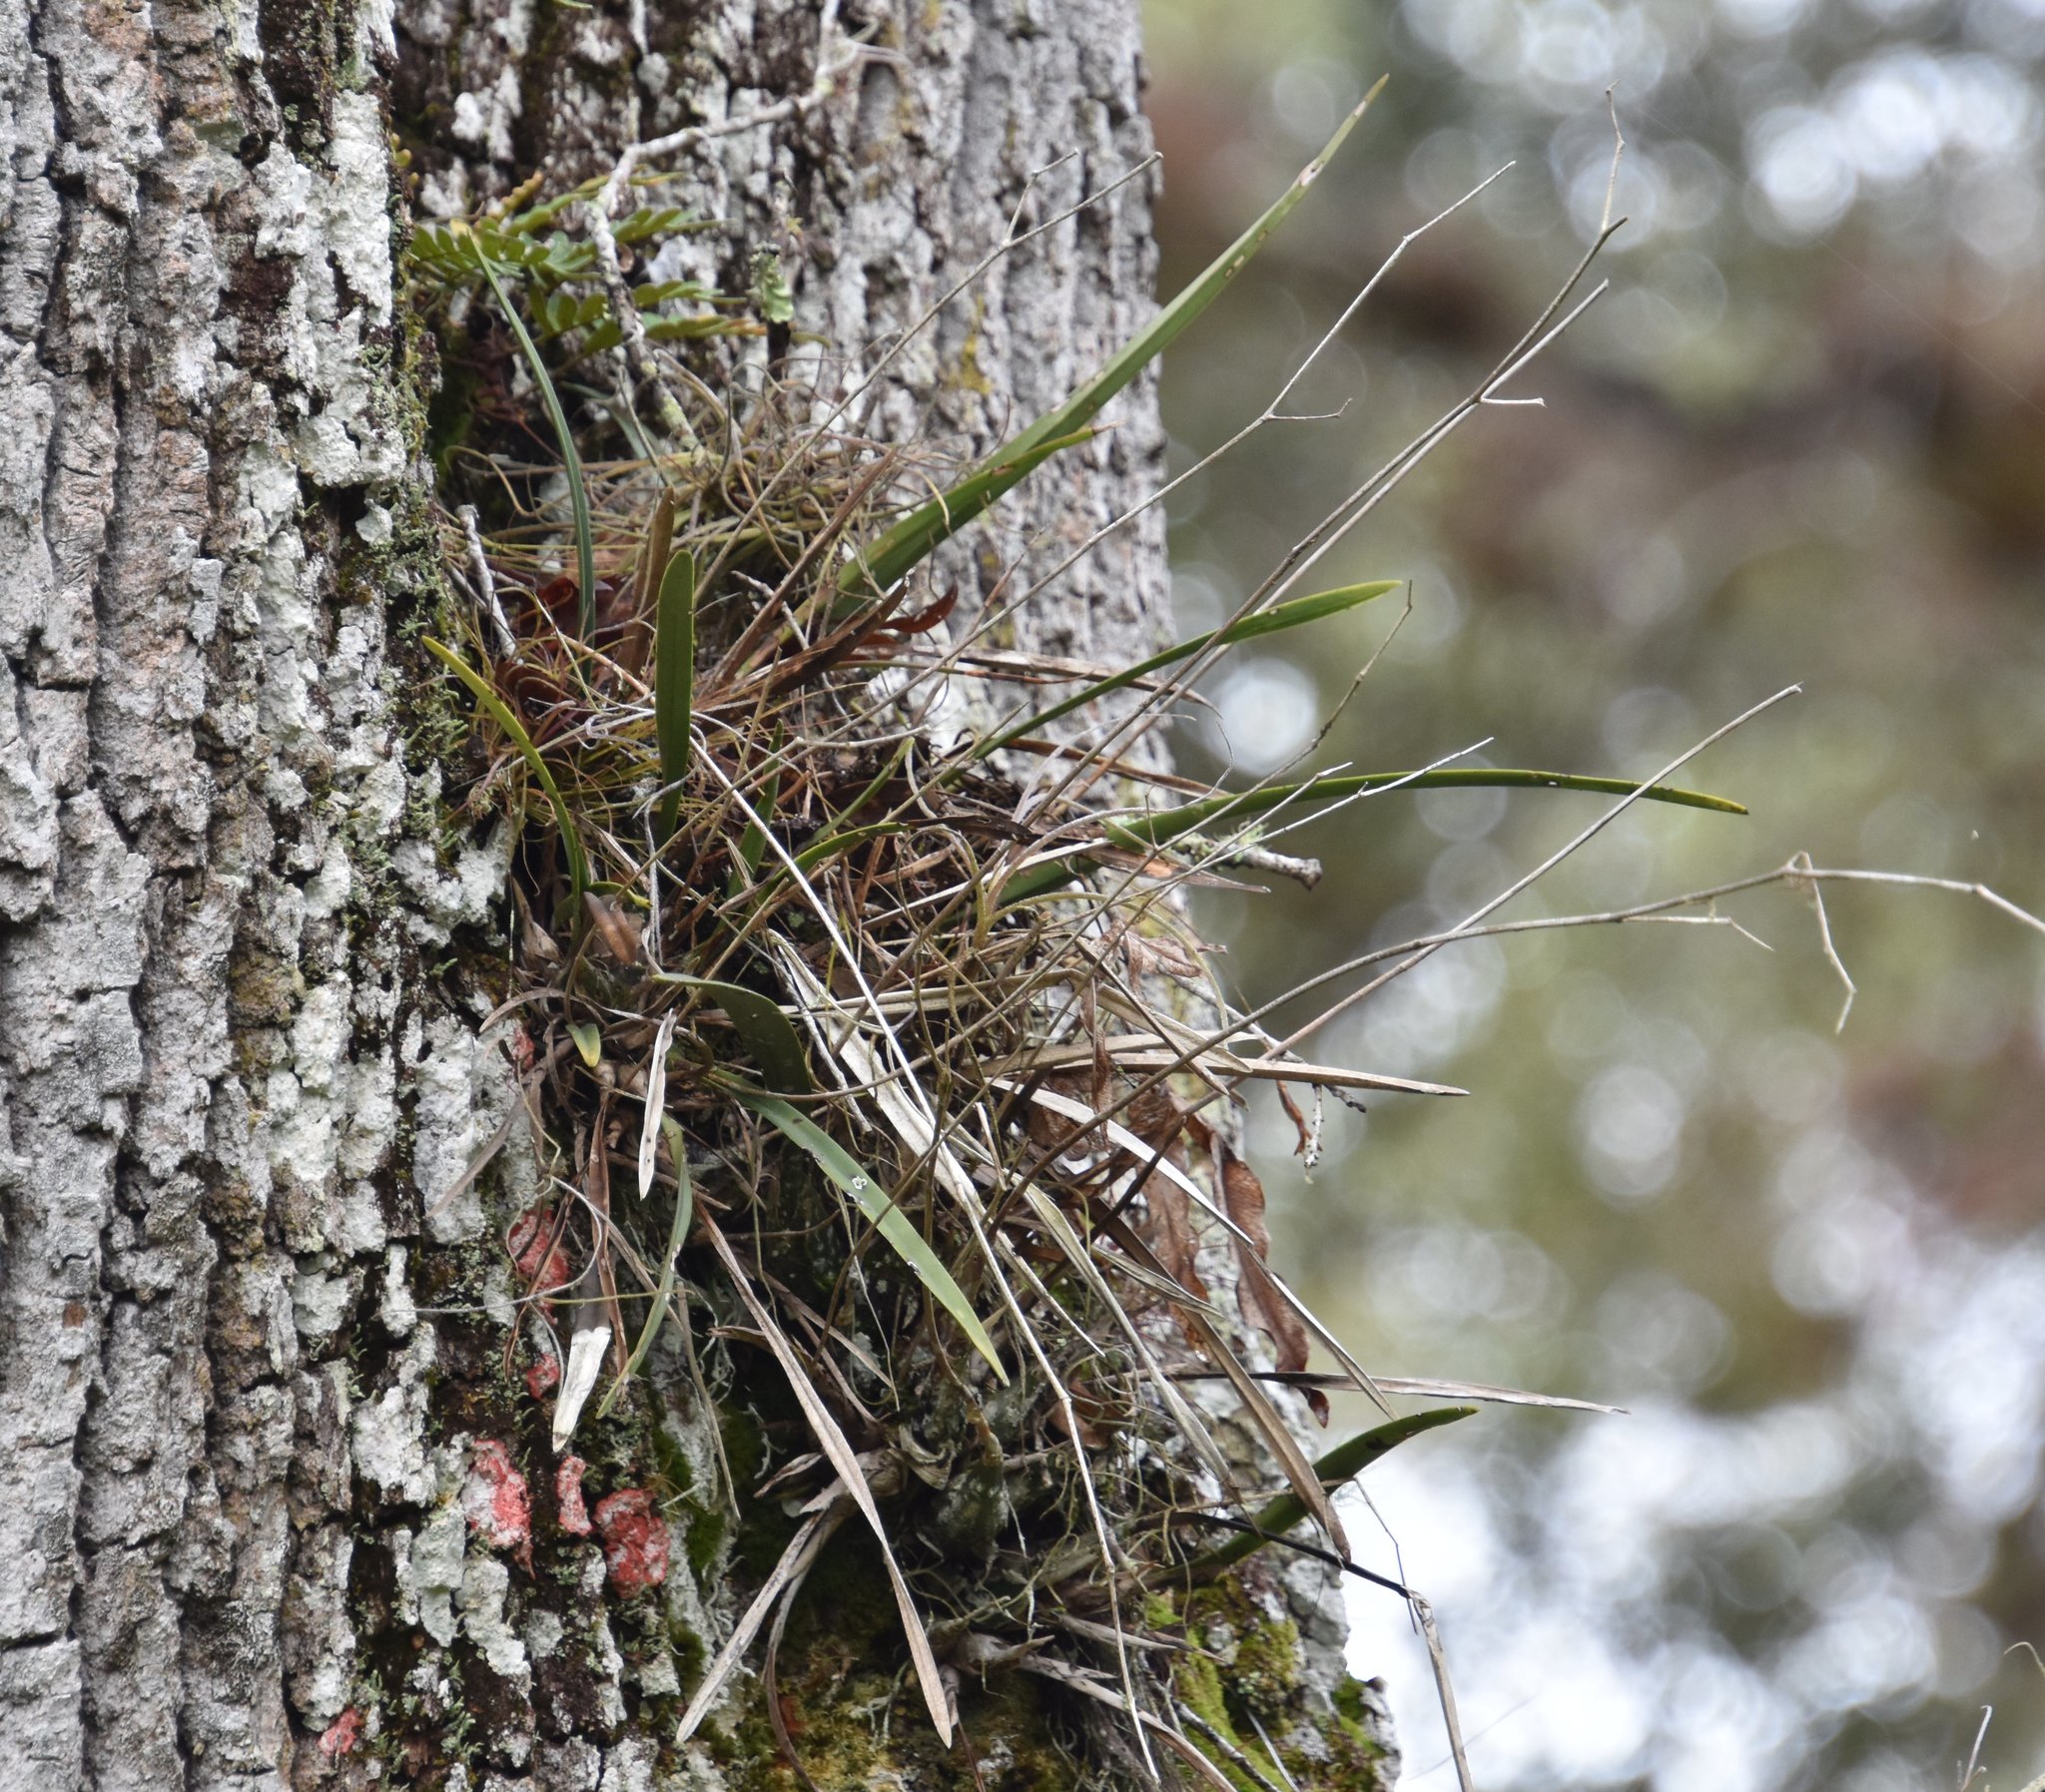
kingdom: Plantae
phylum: Tracheophyta
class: Liliopsida
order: Asparagales
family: Orchidaceae
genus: Encyclia
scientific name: Encyclia tampensis
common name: Florida butterfly orchid
